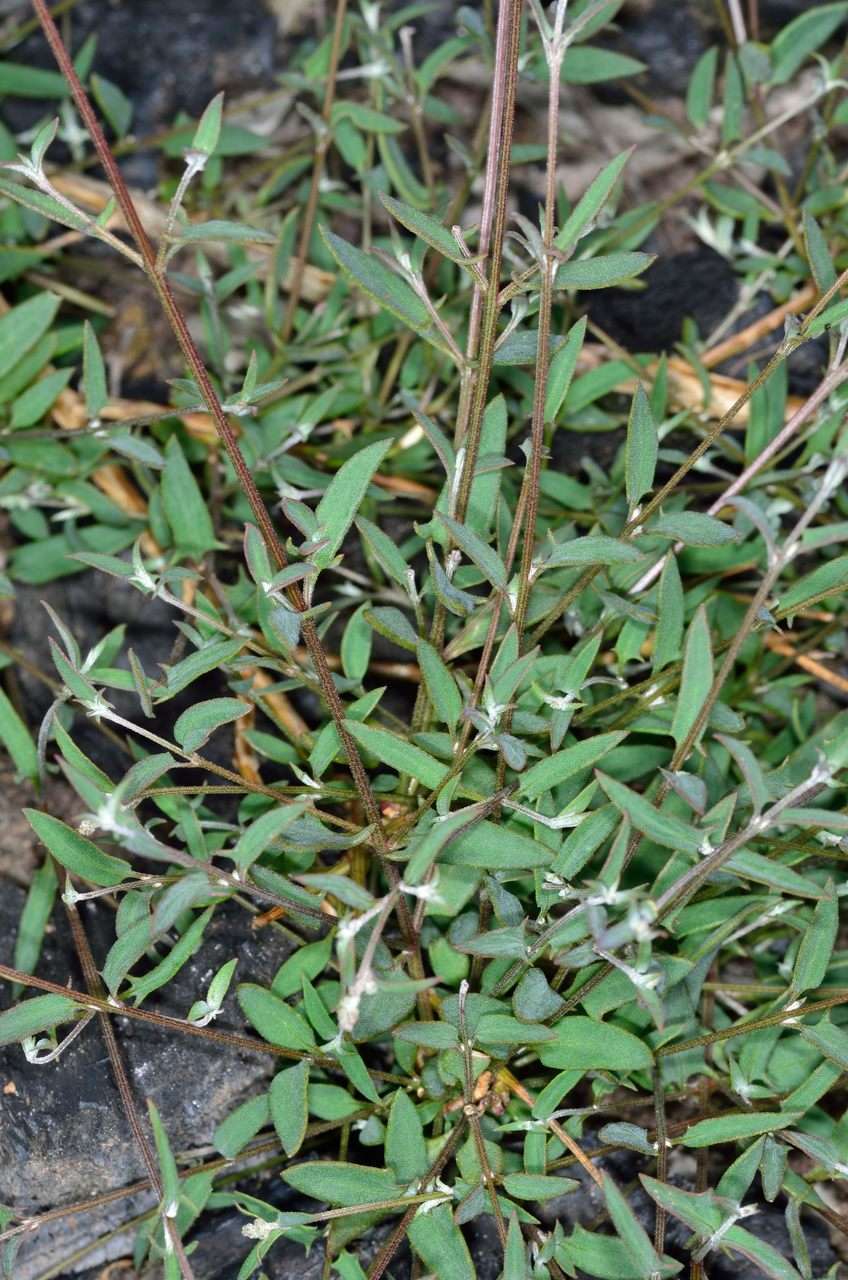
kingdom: Plantae
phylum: Tracheophyta
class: Magnoliopsida
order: Caryophyllales
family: Amaranthaceae
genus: Chenopodium
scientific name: Chenopodium nutans
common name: Climbing-saltbush
